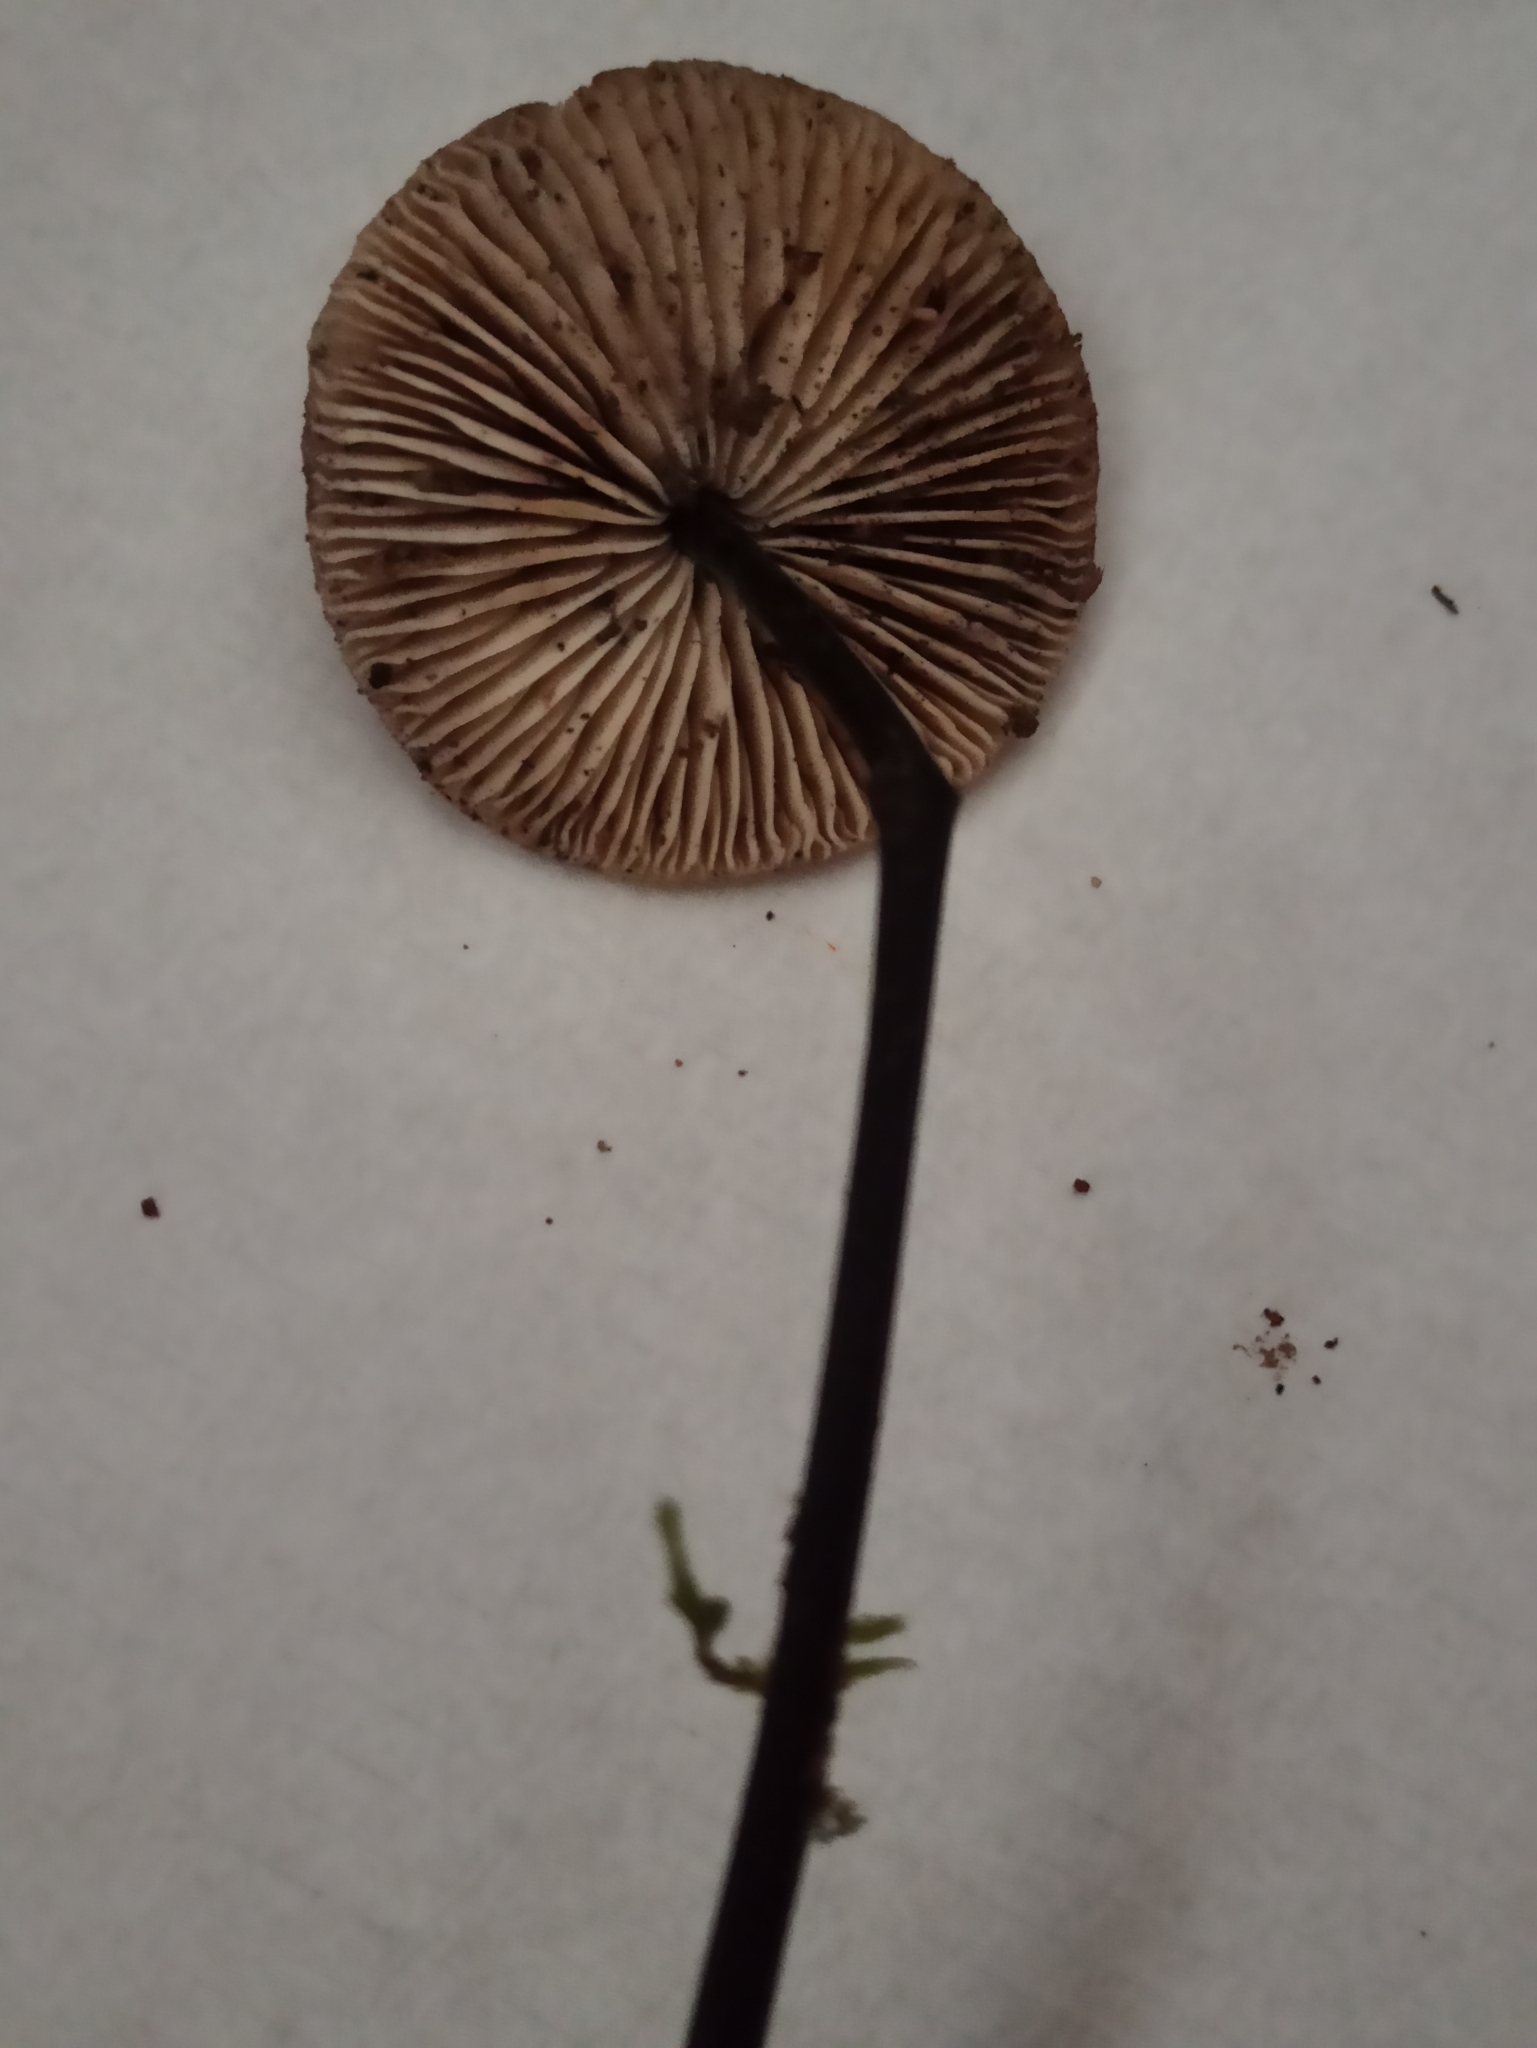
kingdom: Fungi
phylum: Basidiomycota
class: Agaricomycetes
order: Agaricales
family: Omphalotaceae
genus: Mycetinis
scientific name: Mycetinis alliaceus
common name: Garlic parachute
